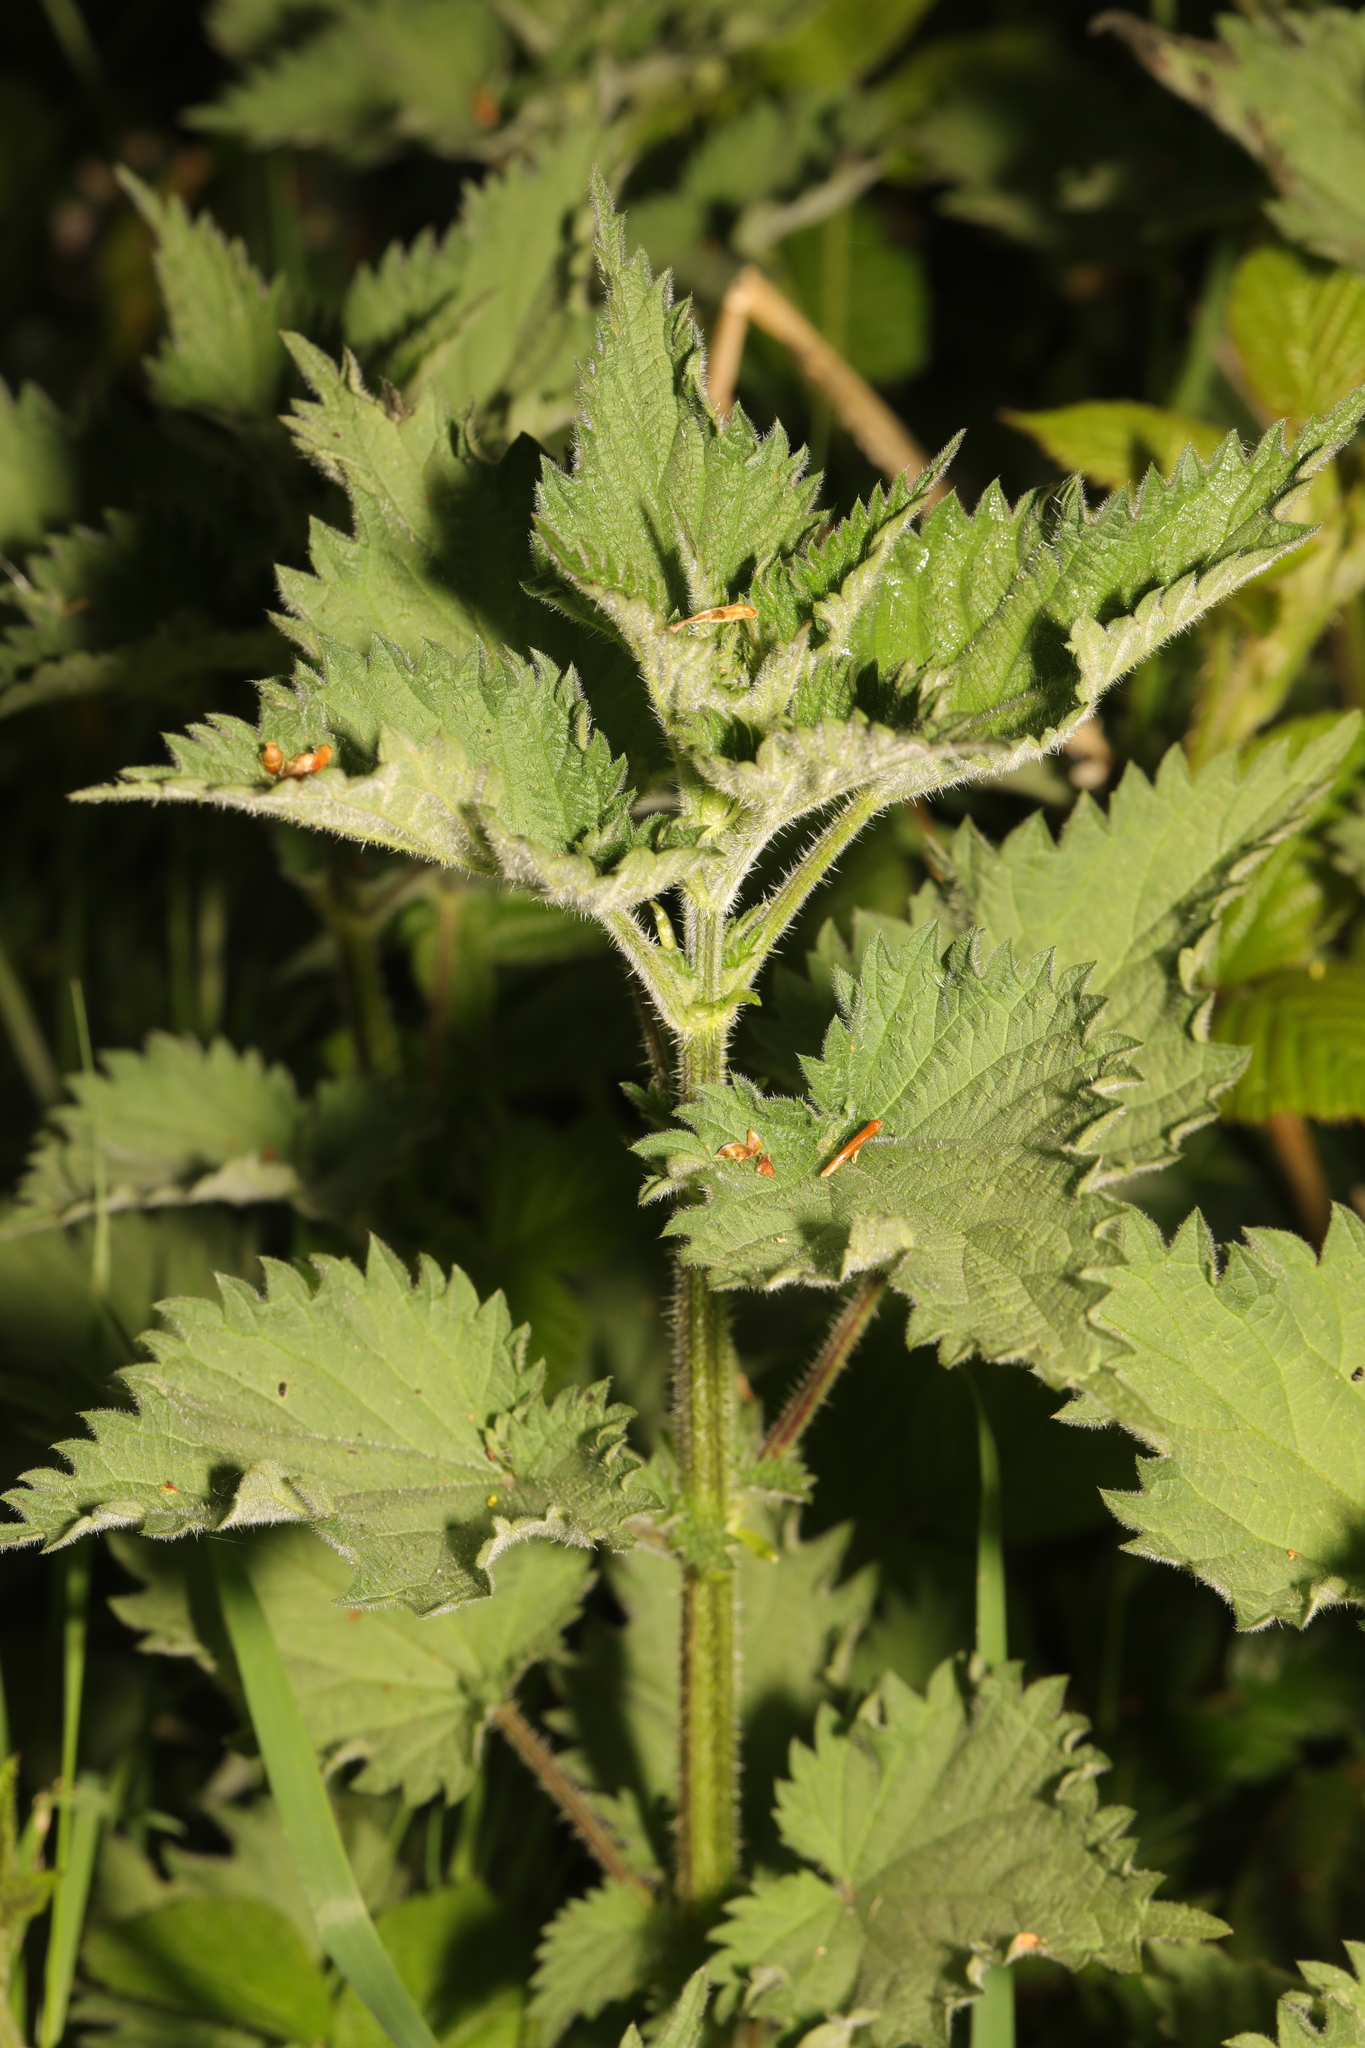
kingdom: Plantae
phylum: Tracheophyta
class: Magnoliopsida
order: Rosales
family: Urticaceae
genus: Urtica
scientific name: Urtica dioica
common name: Common nettle
